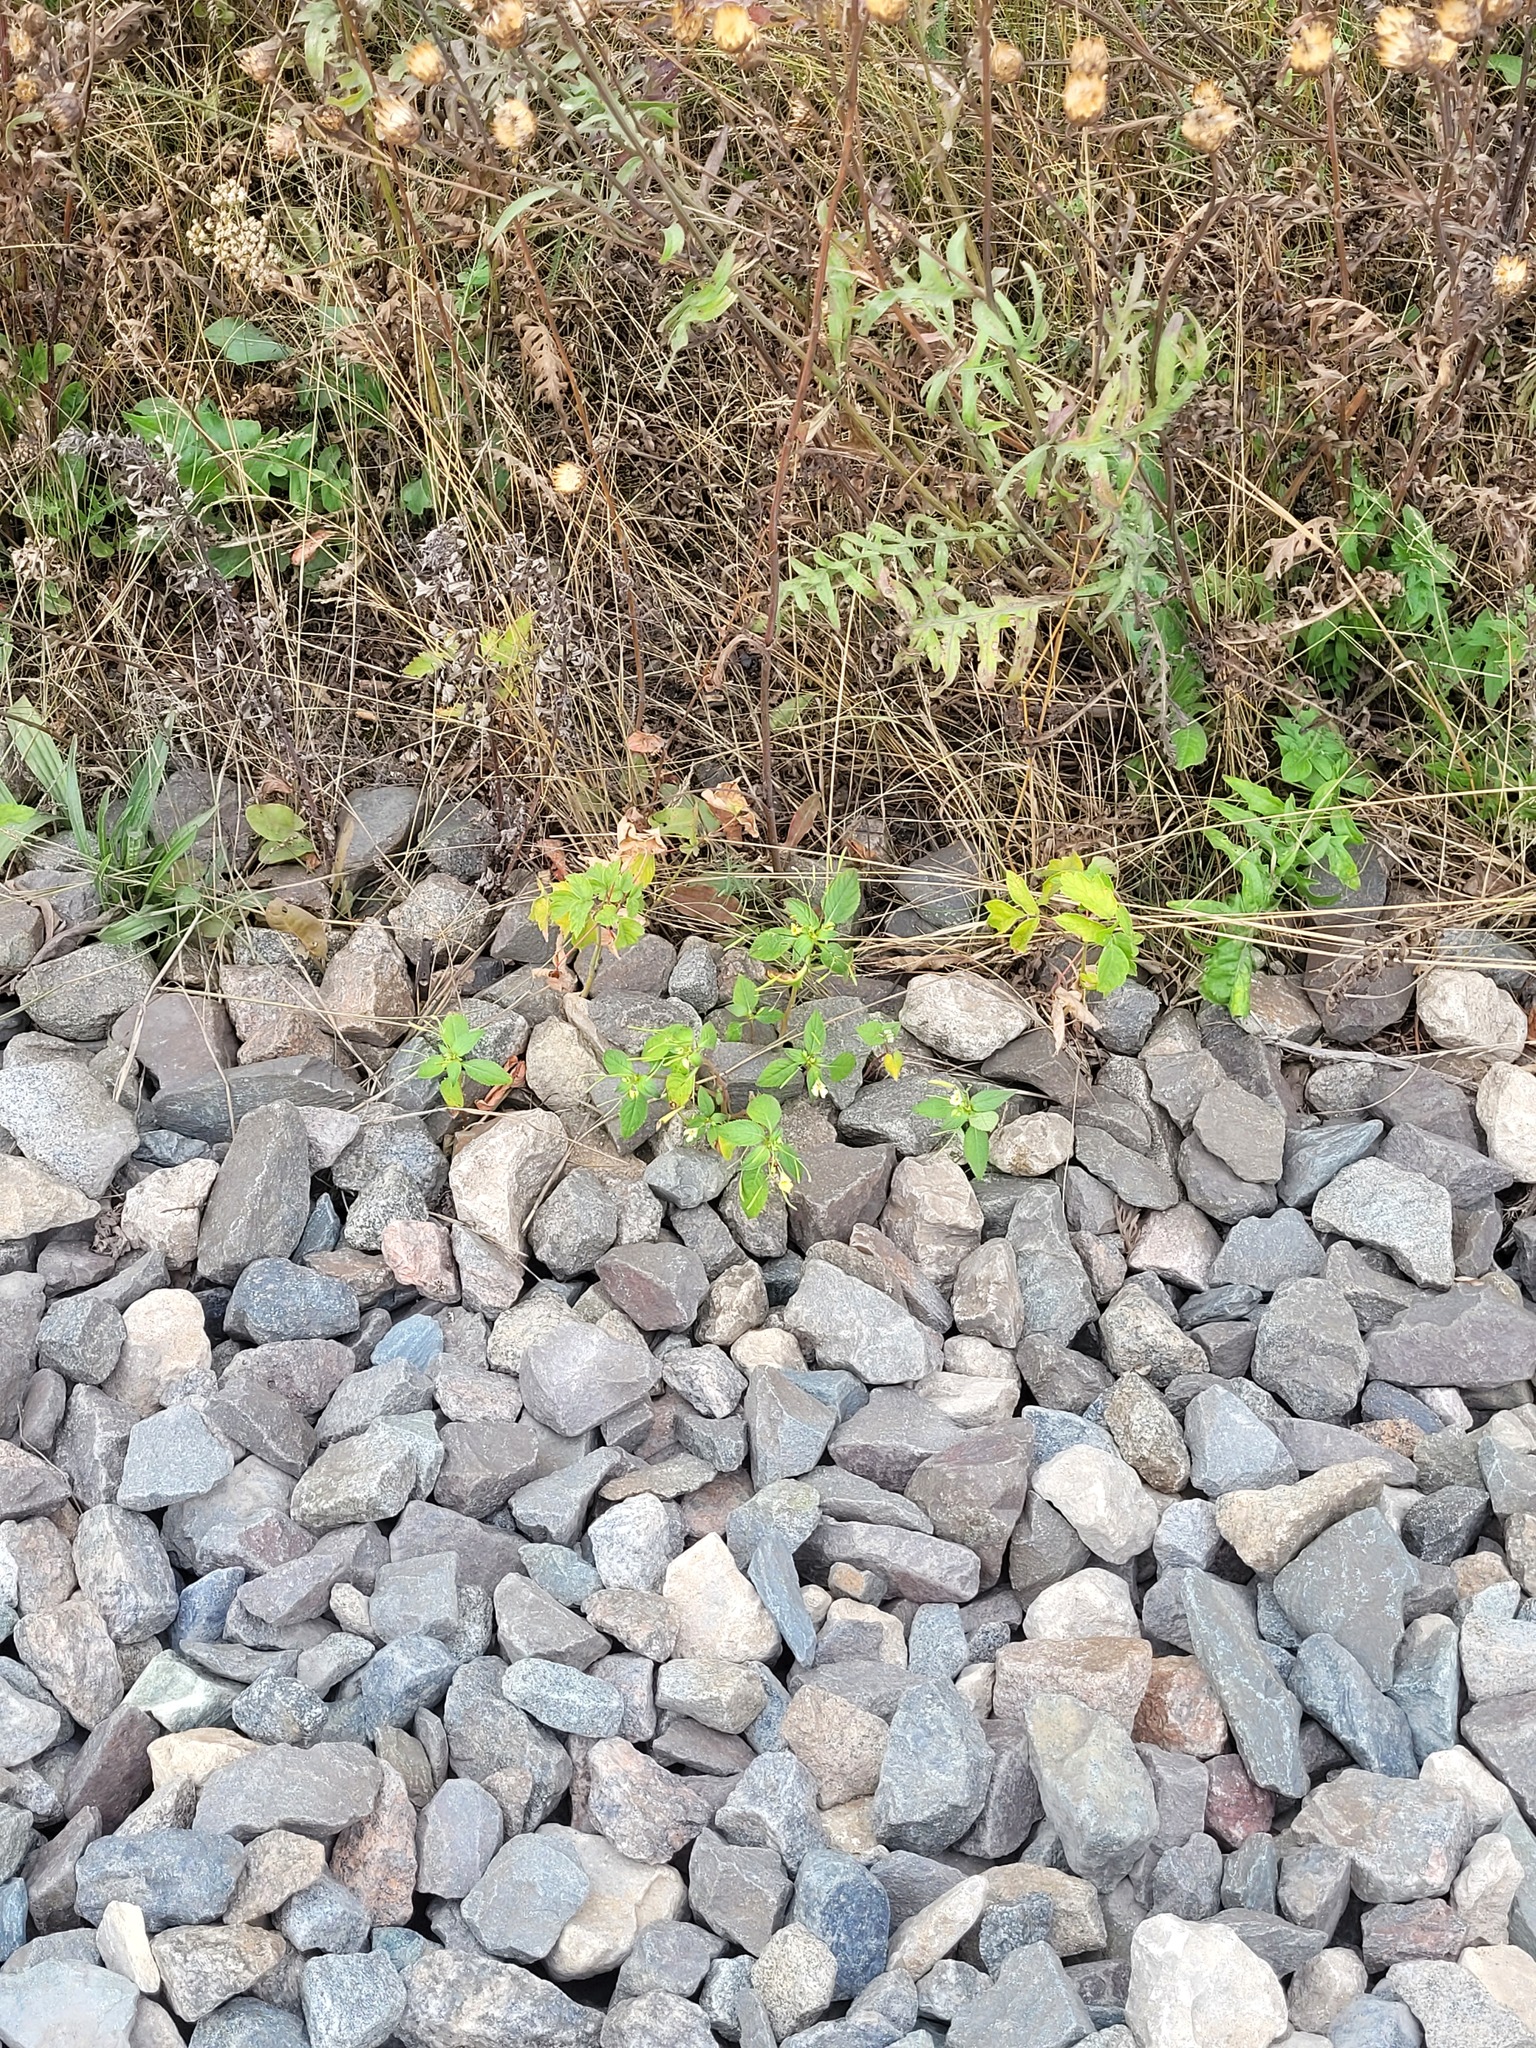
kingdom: Plantae
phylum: Tracheophyta
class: Magnoliopsida
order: Ericales
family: Balsaminaceae
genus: Impatiens
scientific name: Impatiens parviflora
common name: Small balsam
